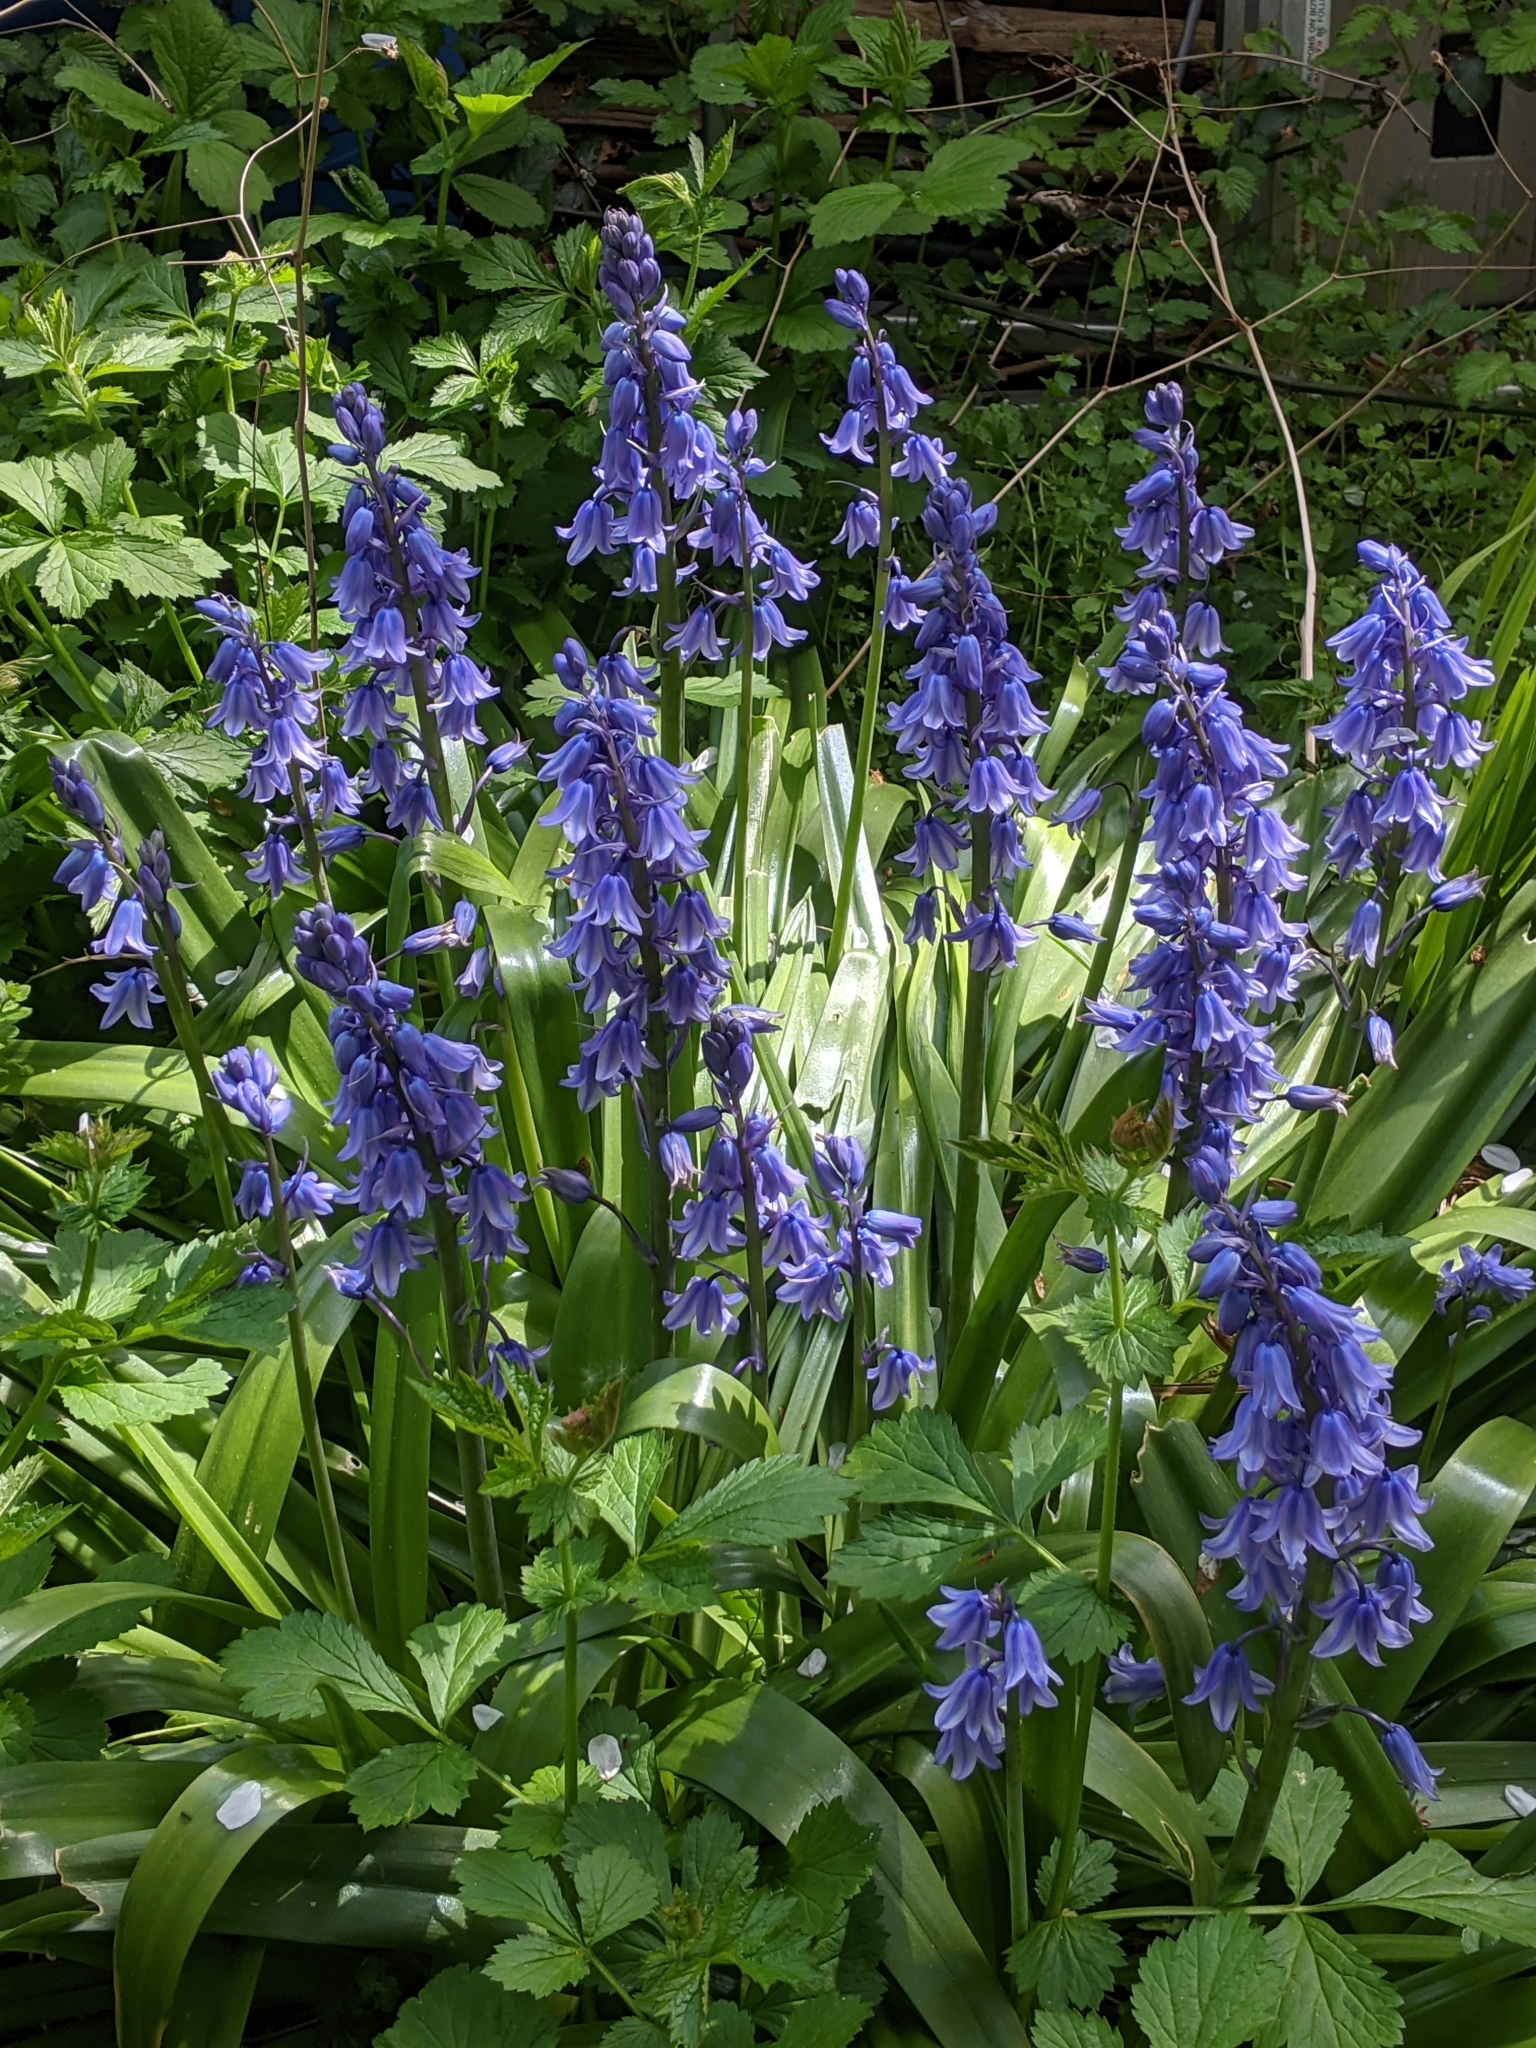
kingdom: Plantae
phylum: Tracheophyta
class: Liliopsida
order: Asparagales
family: Asparagaceae
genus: Hyacinthoides
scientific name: Hyacinthoides hispanica
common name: Spanish bluebell
